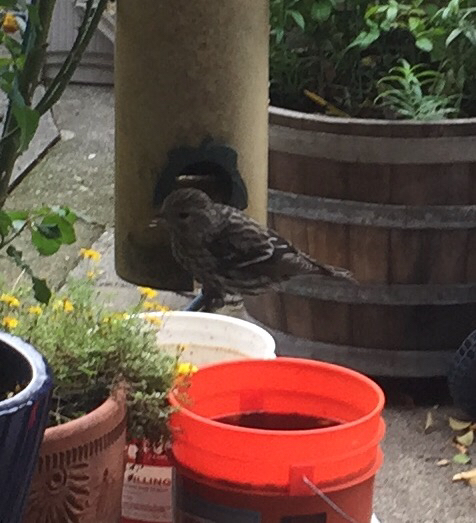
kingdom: Animalia
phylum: Chordata
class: Aves
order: Passeriformes
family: Fringillidae
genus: Spinus
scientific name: Spinus pinus
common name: Pine siskin
